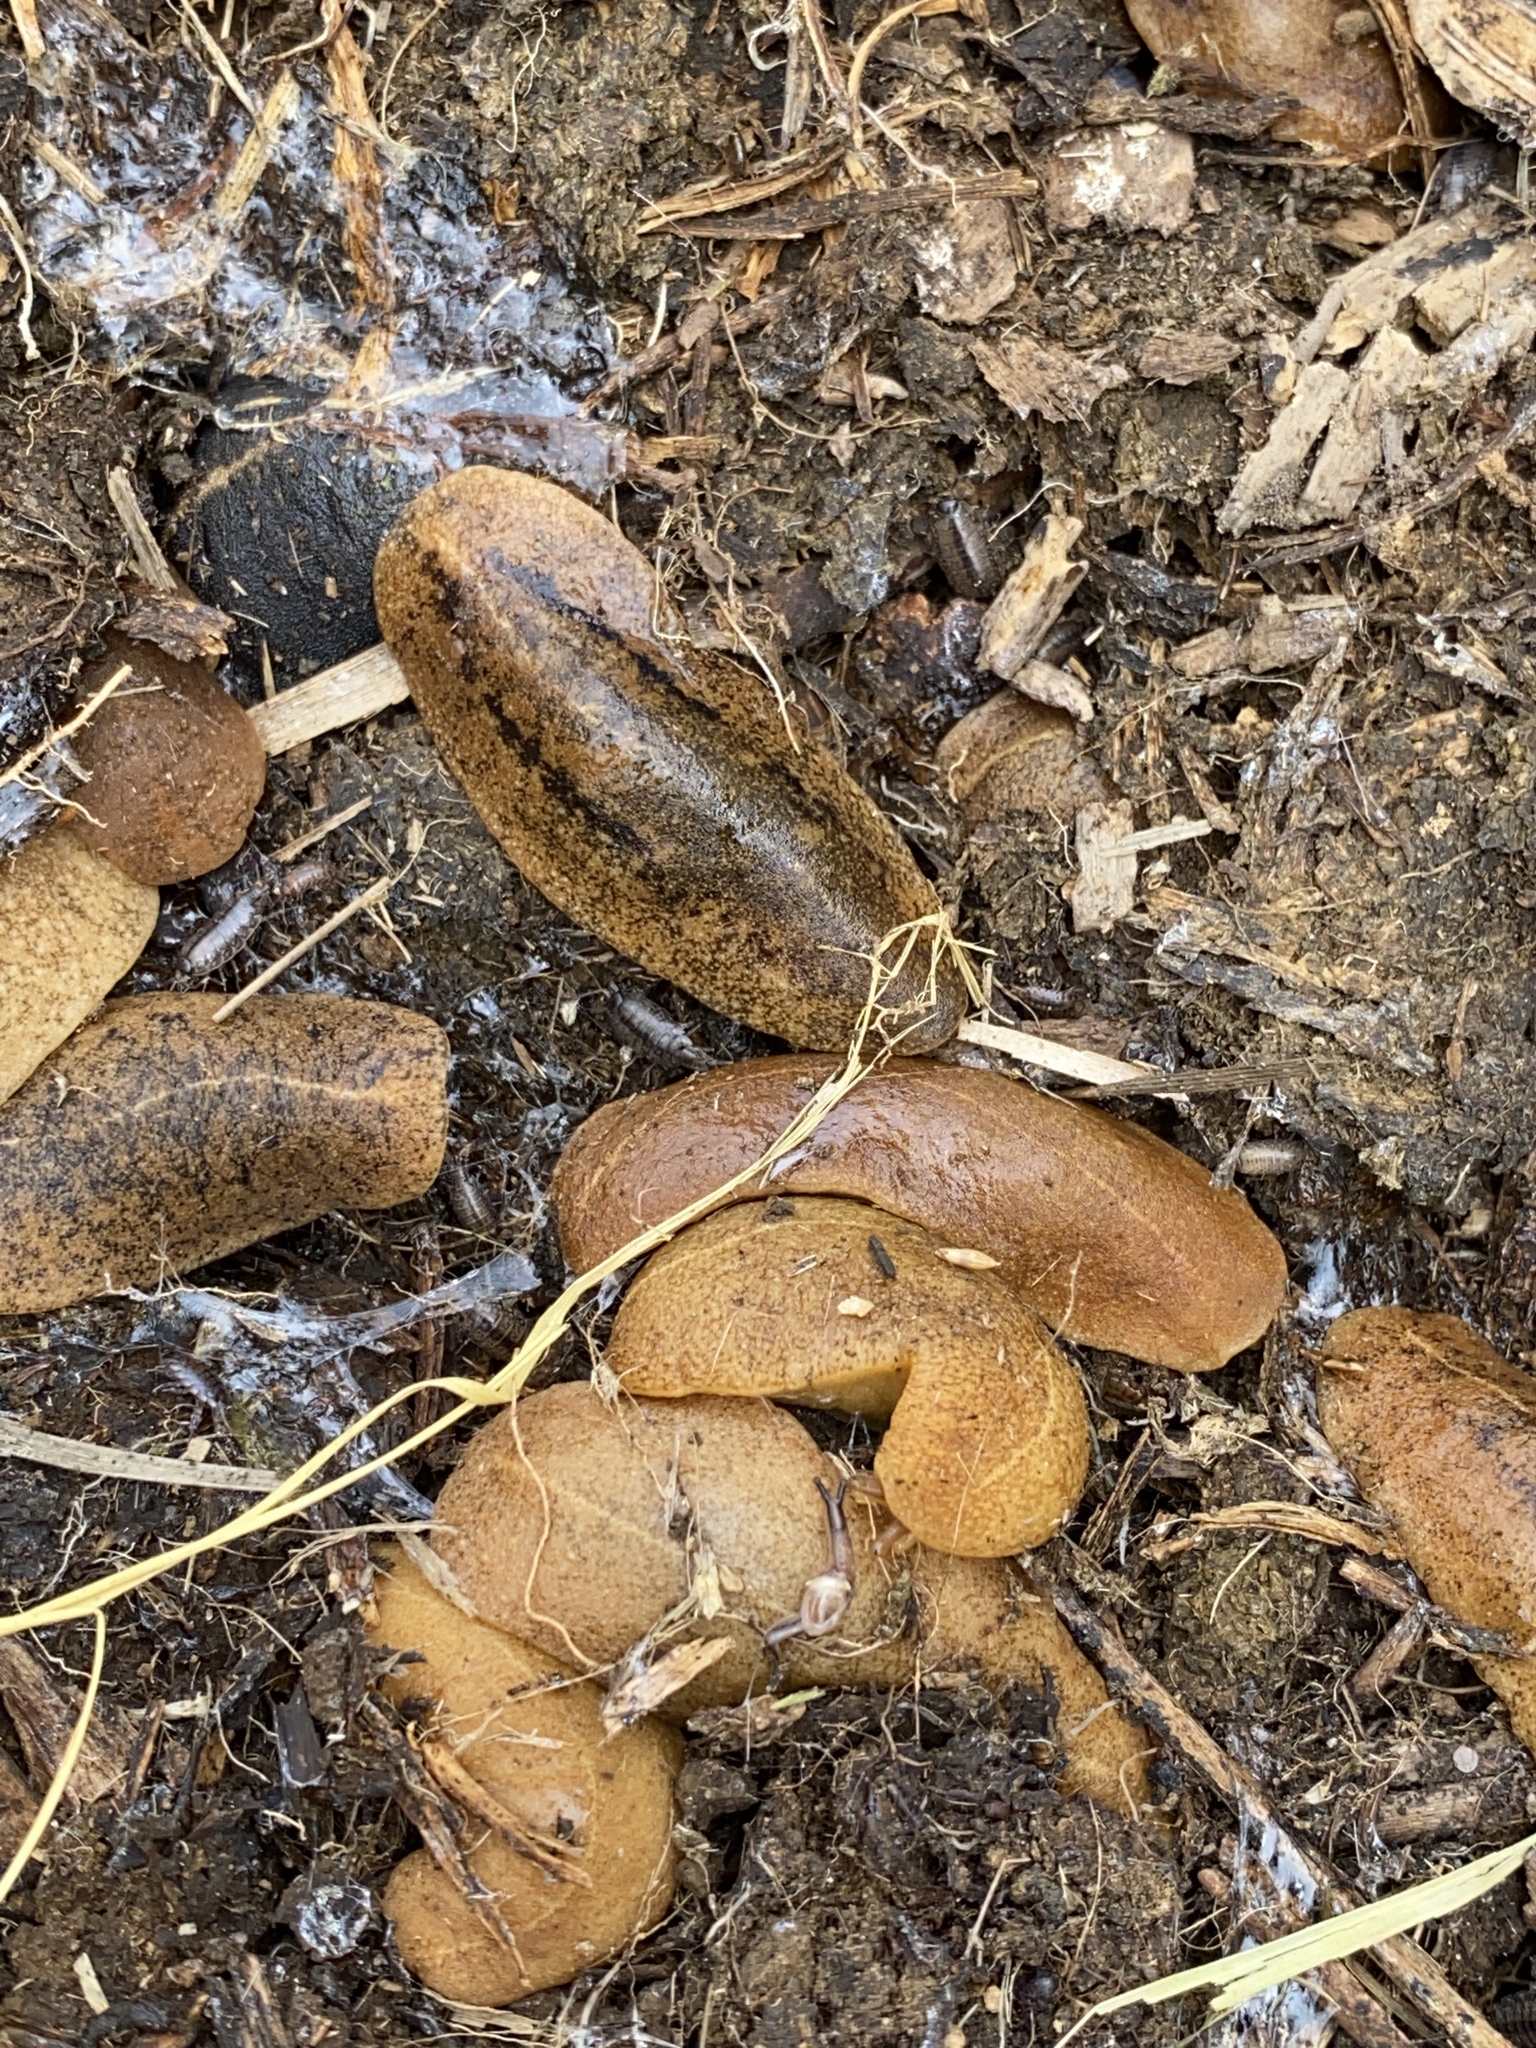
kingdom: Animalia
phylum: Mollusca
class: Gastropoda
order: Systellommatophora
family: Veronicellidae
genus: Veronicella
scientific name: Veronicella cubensis
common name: Two striped slug
